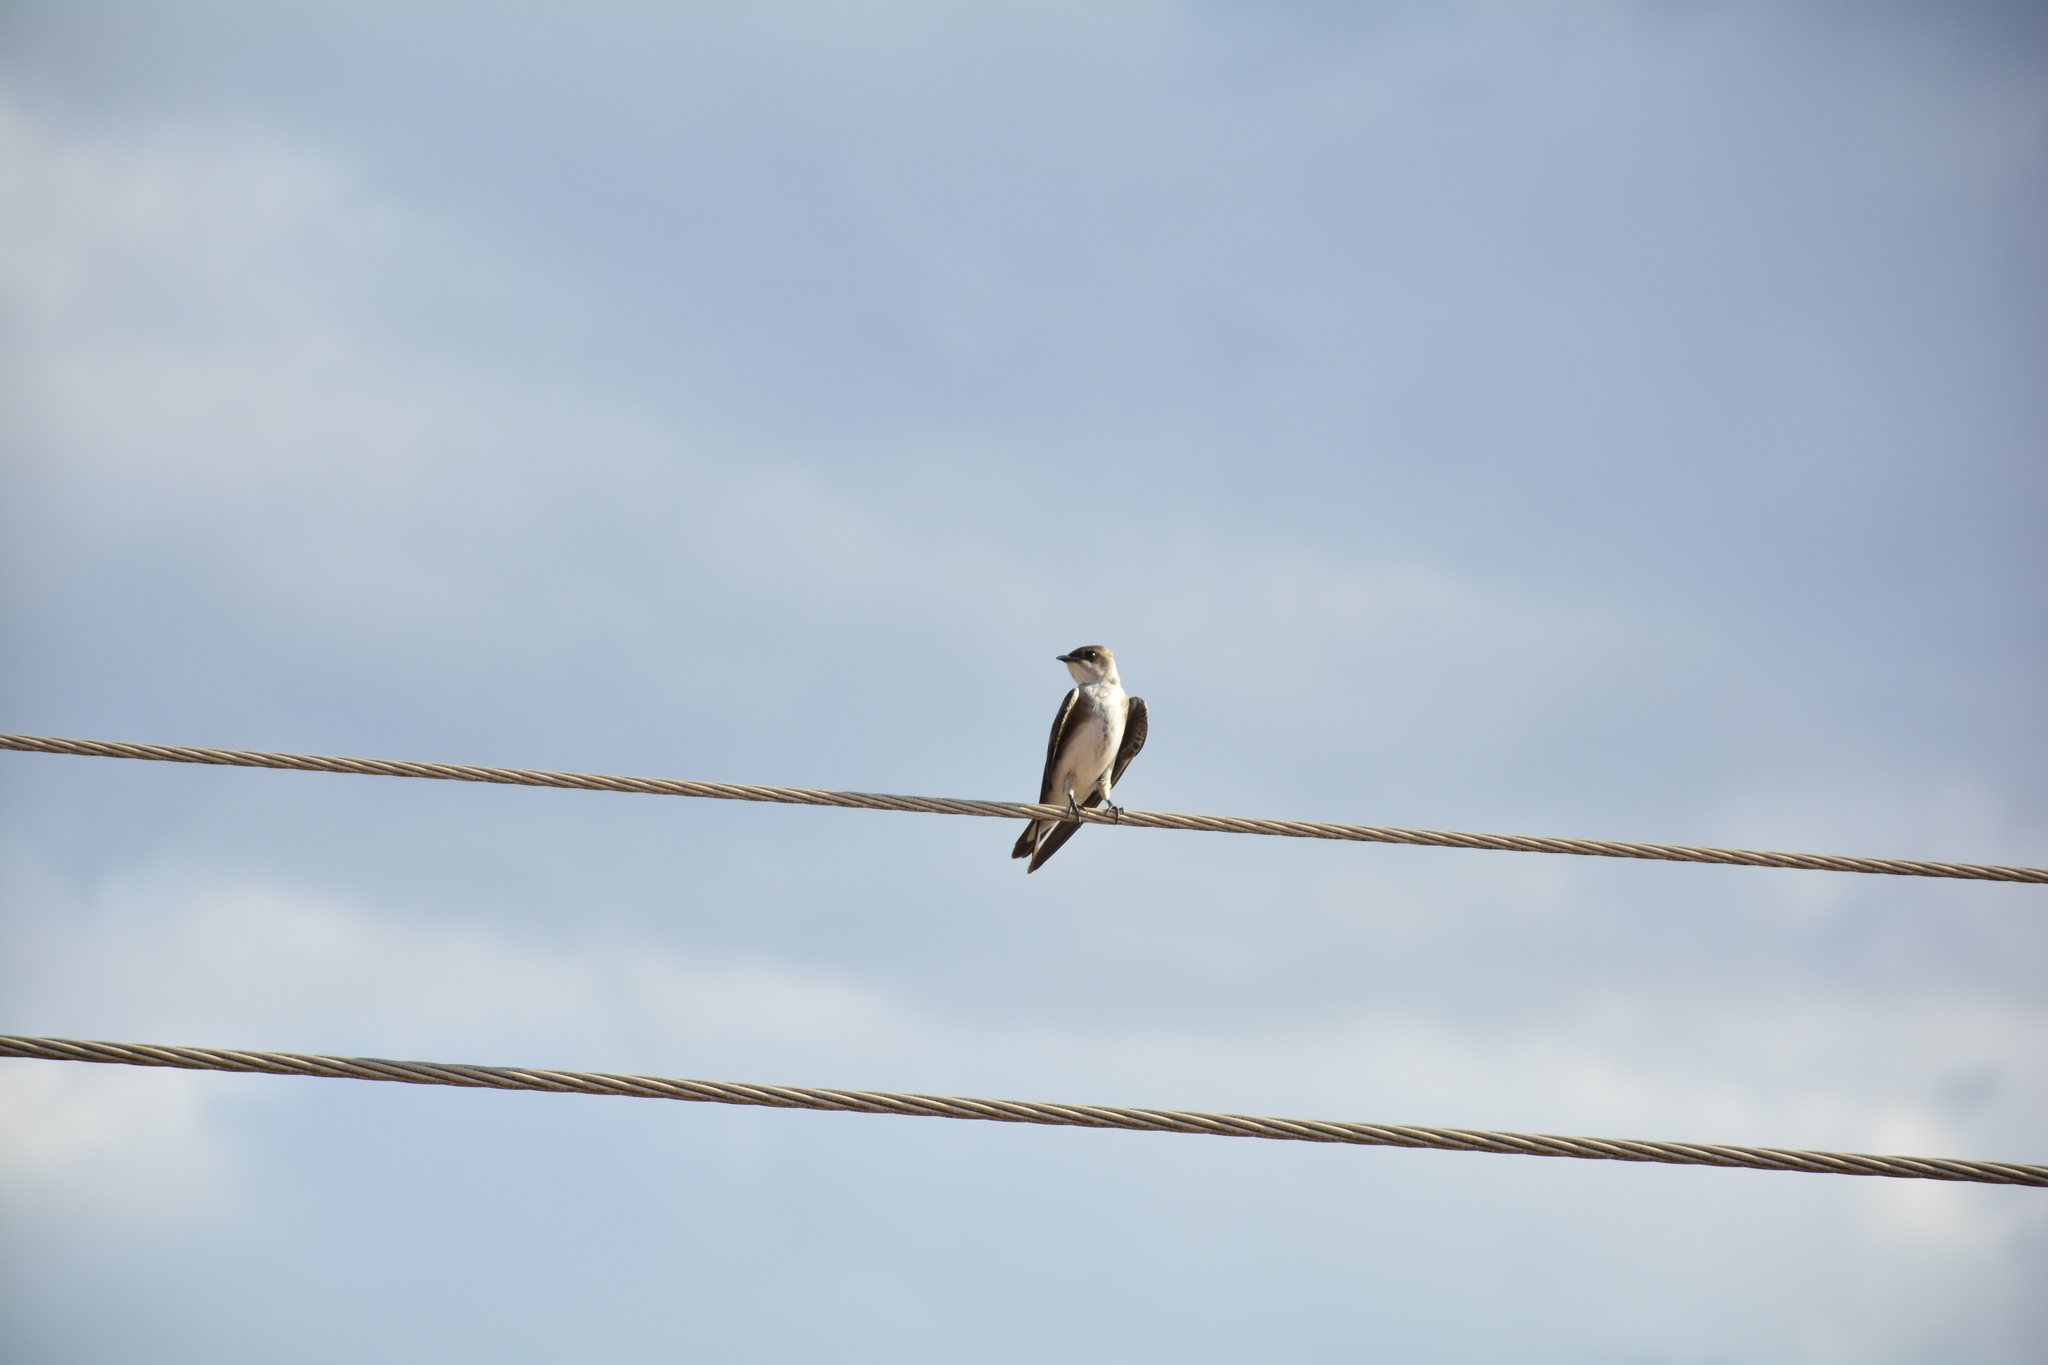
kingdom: Animalia
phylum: Chordata
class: Aves
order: Passeriformes
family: Hirundinidae
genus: Progne
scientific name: Progne tapera
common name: Brown-chested martin
